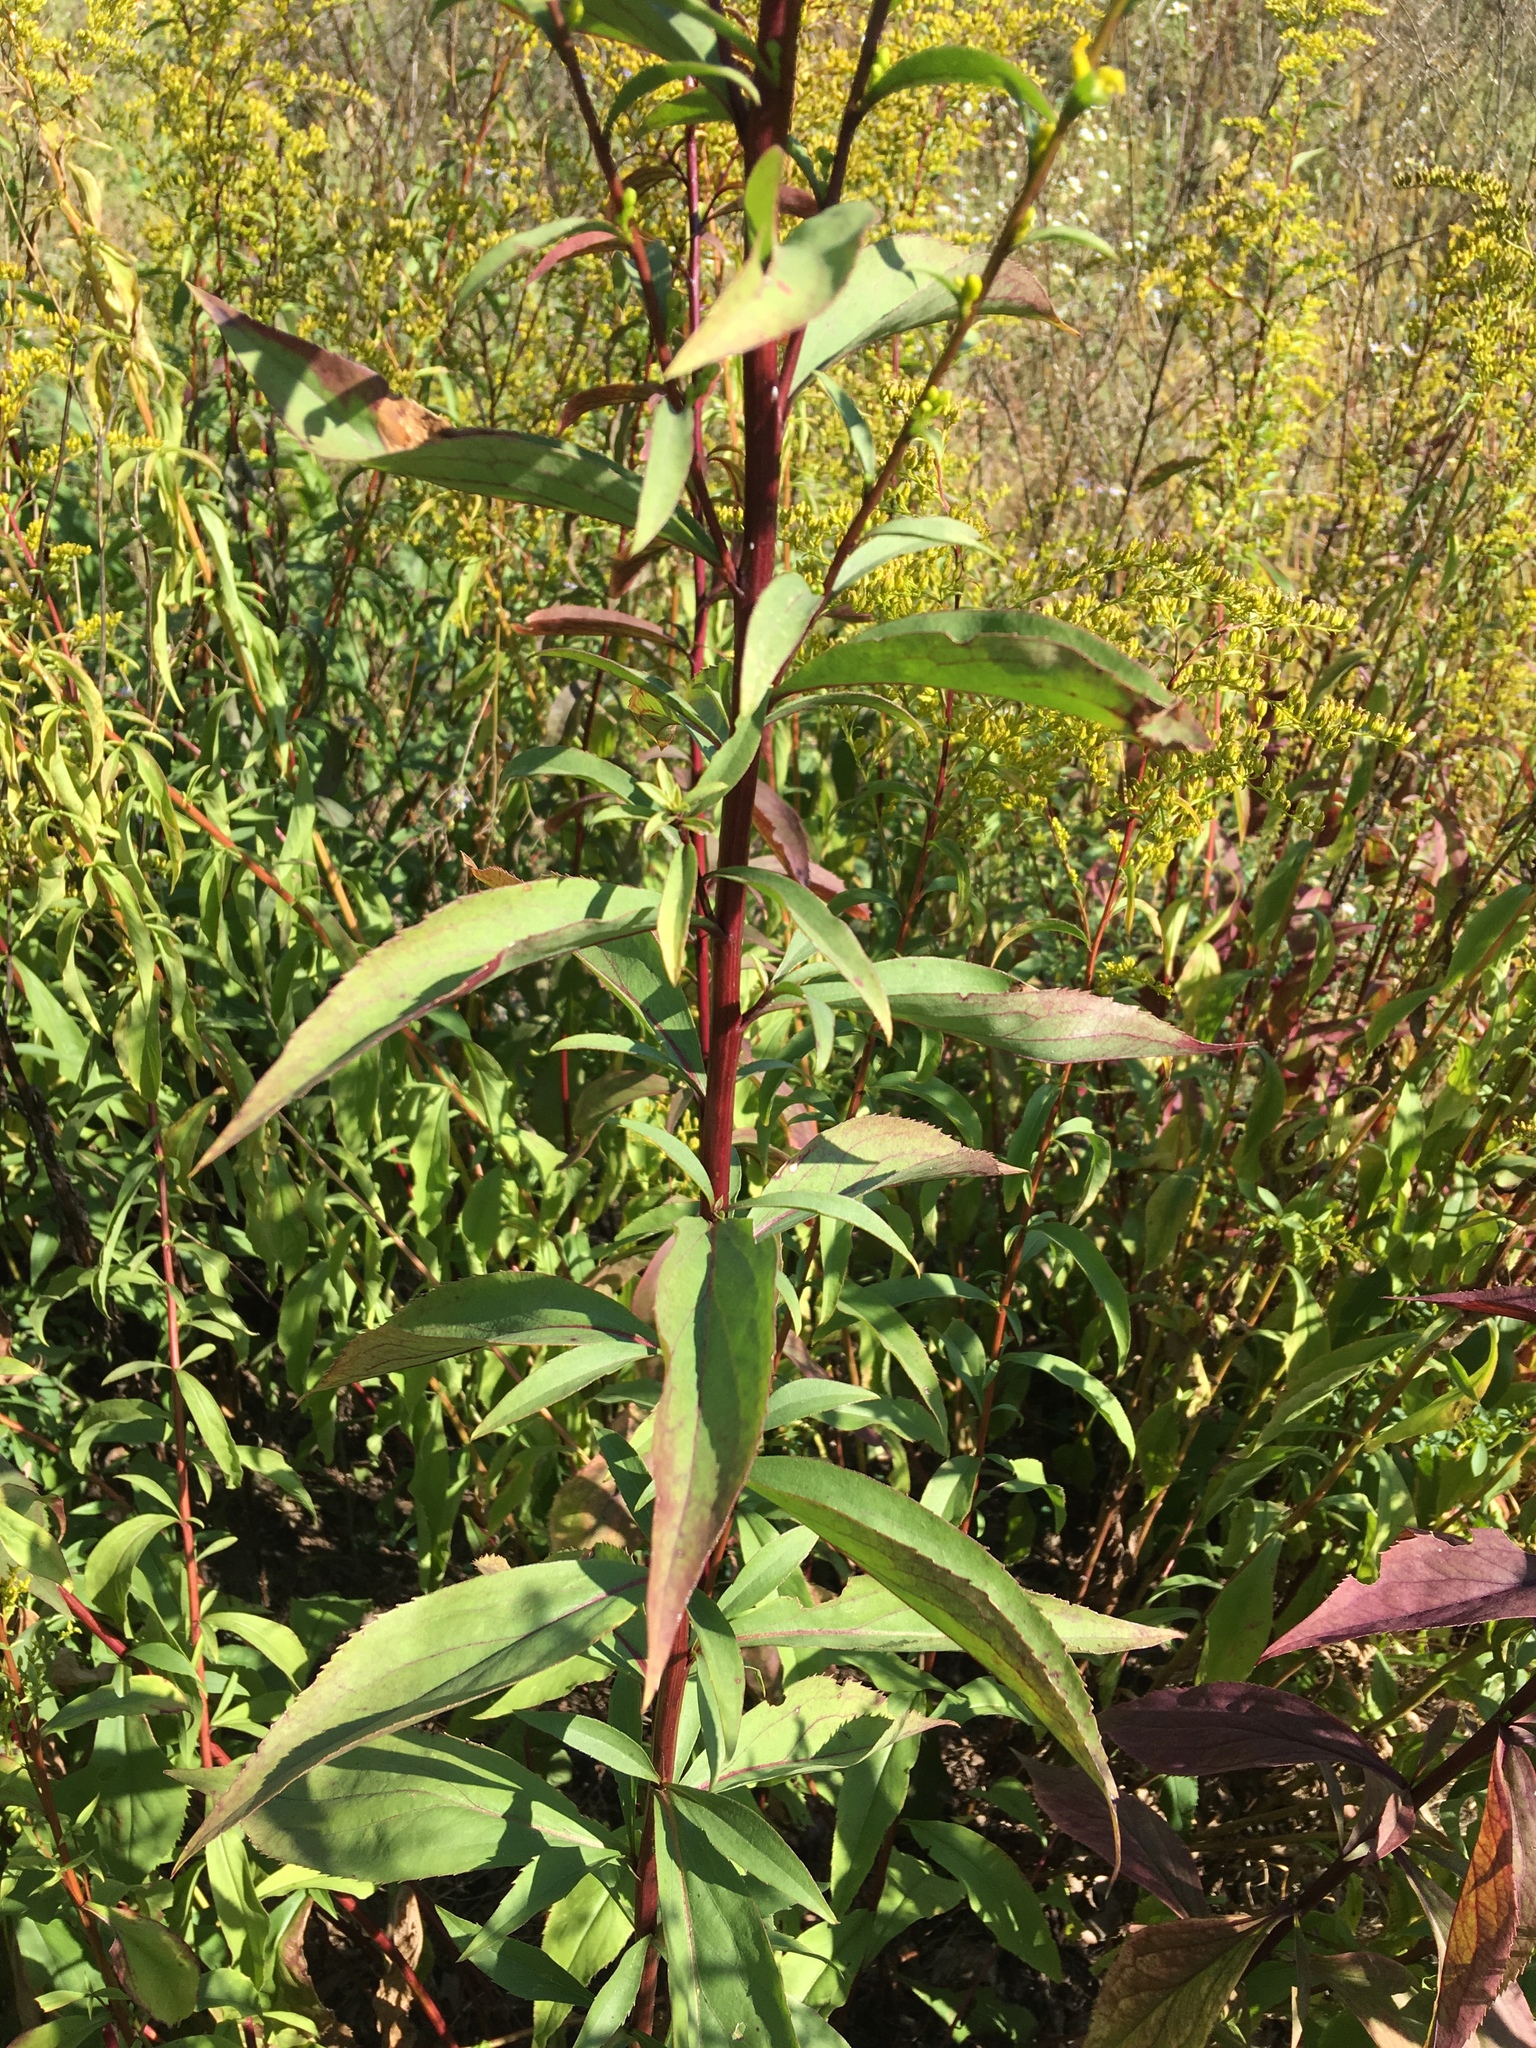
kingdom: Plantae
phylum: Tracheophyta
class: Magnoliopsida
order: Asterales
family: Asteraceae
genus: Solidago
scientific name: Solidago juncea
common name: Early goldenrod
